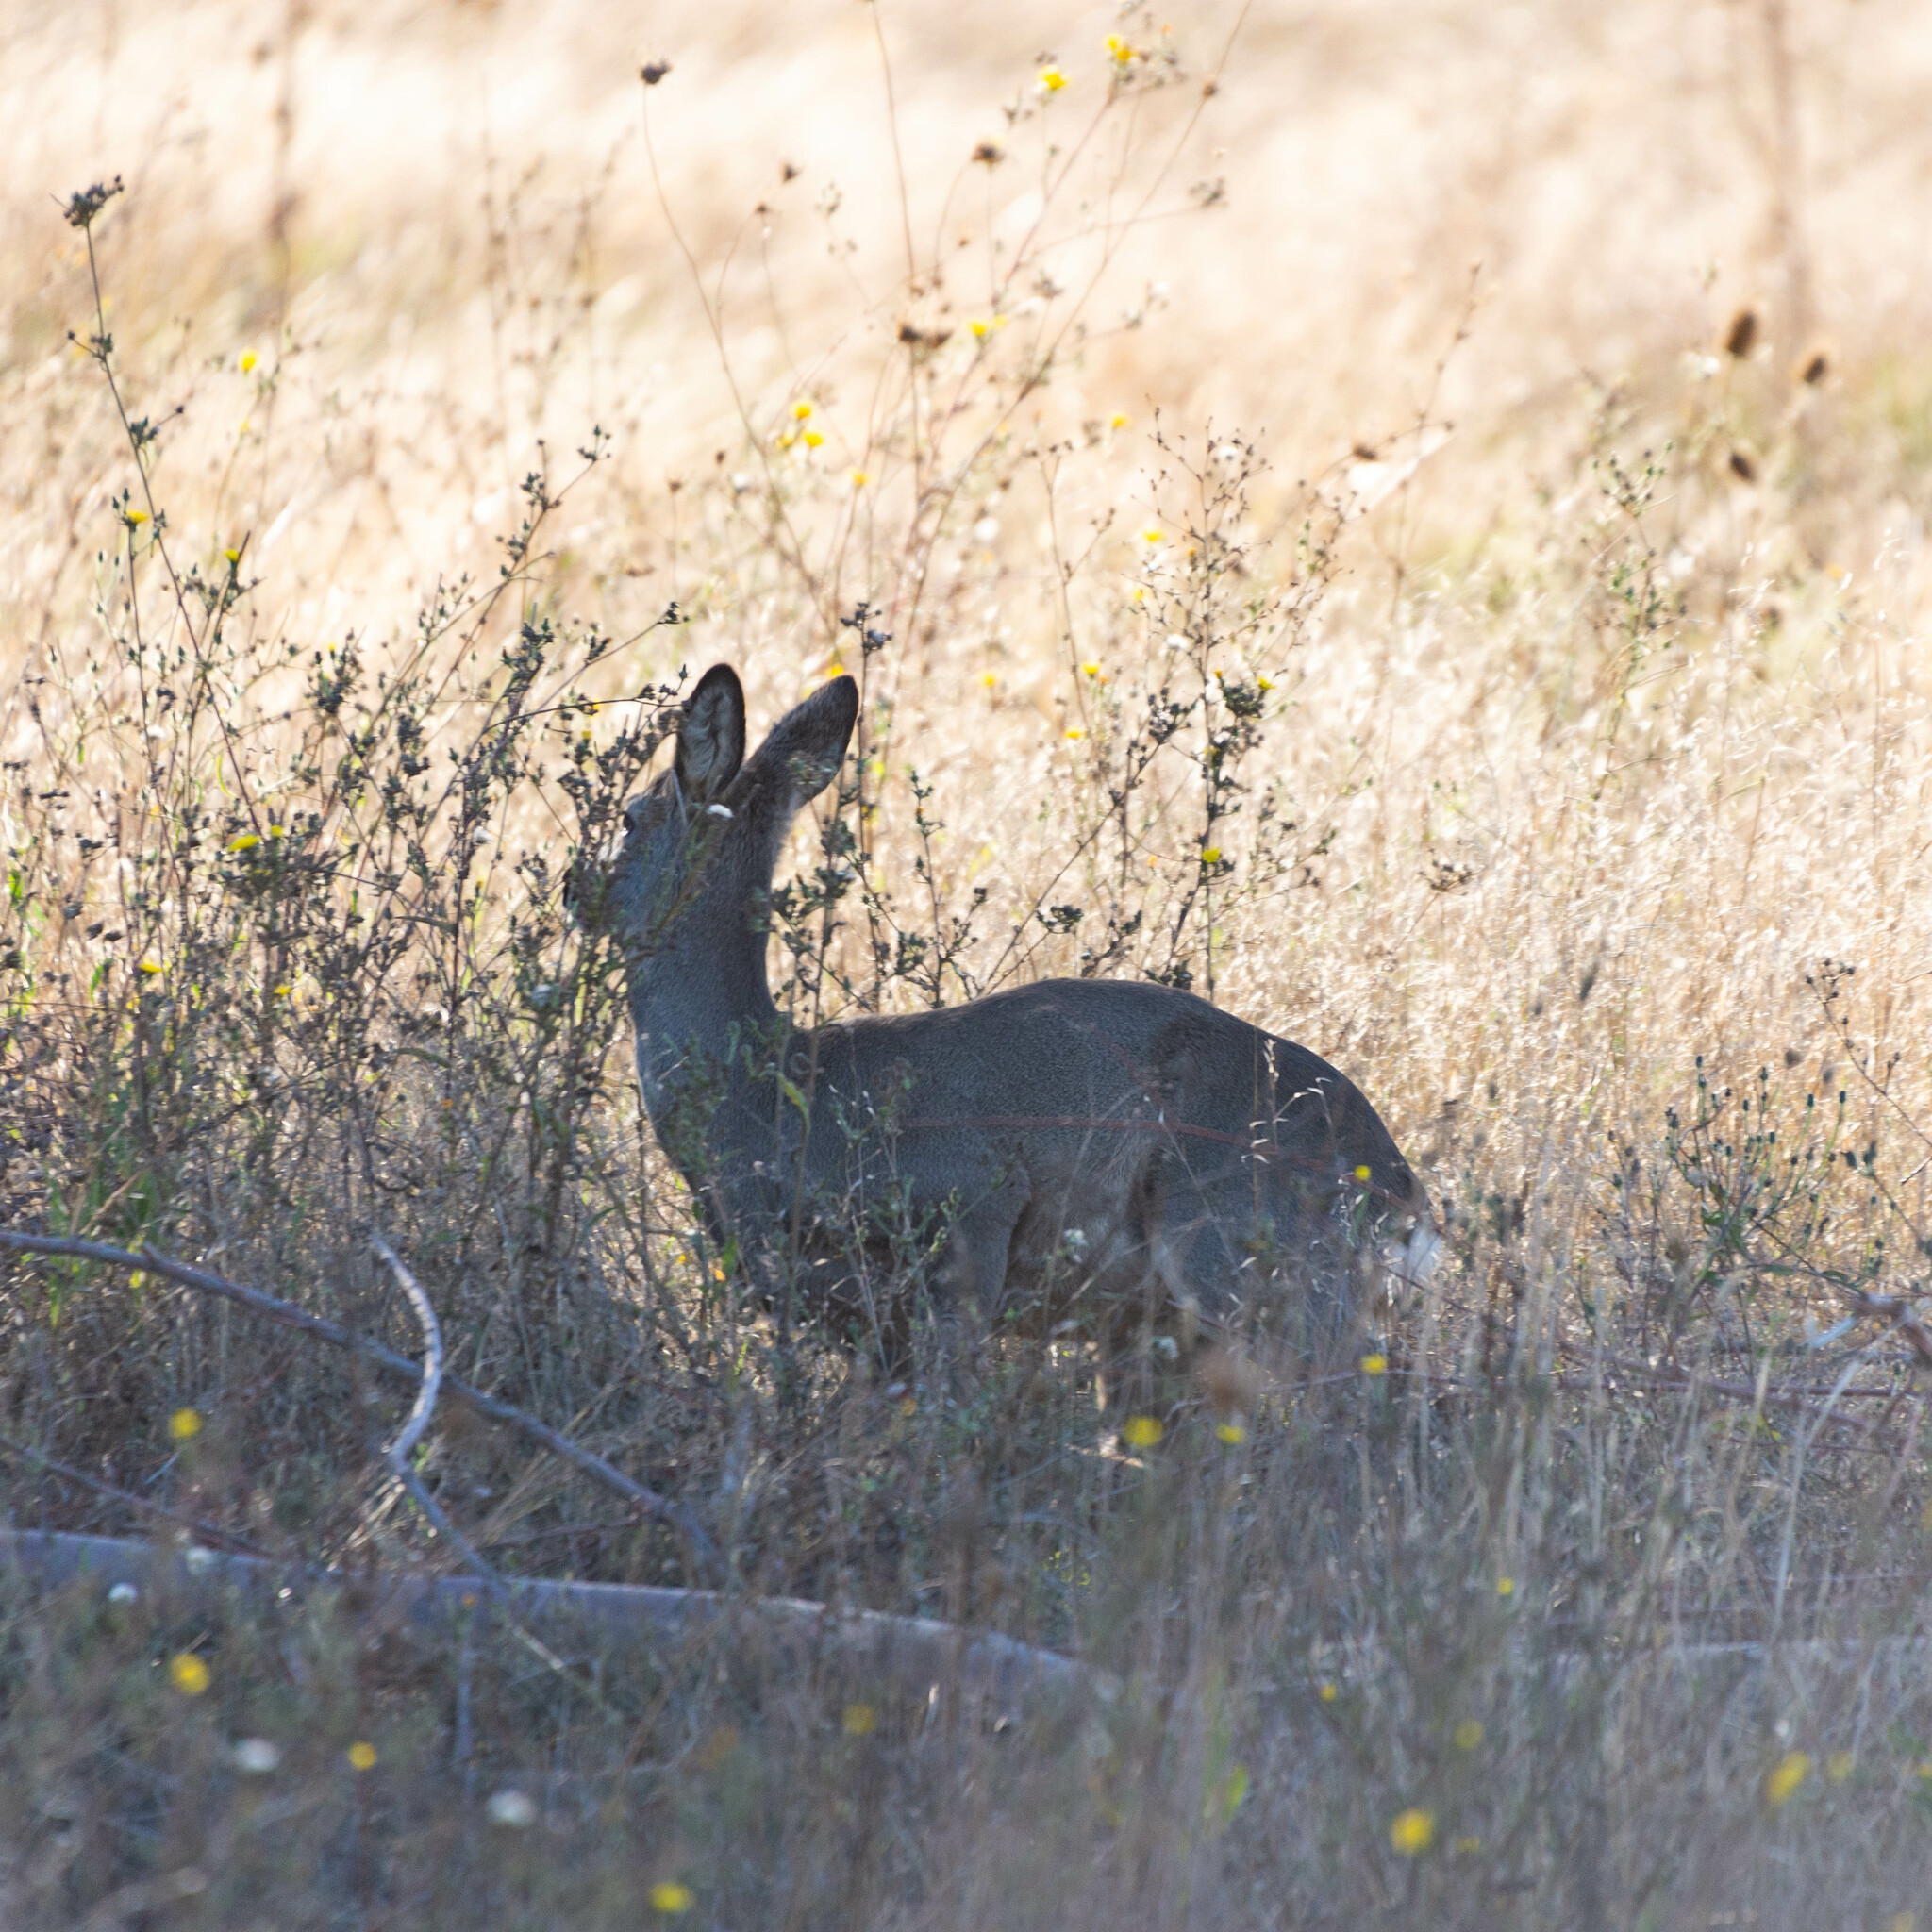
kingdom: Animalia
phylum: Chordata
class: Mammalia
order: Artiodactyla
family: Cervidae
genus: Capreolus
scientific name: Capreolus capreolus
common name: Western roe deer
